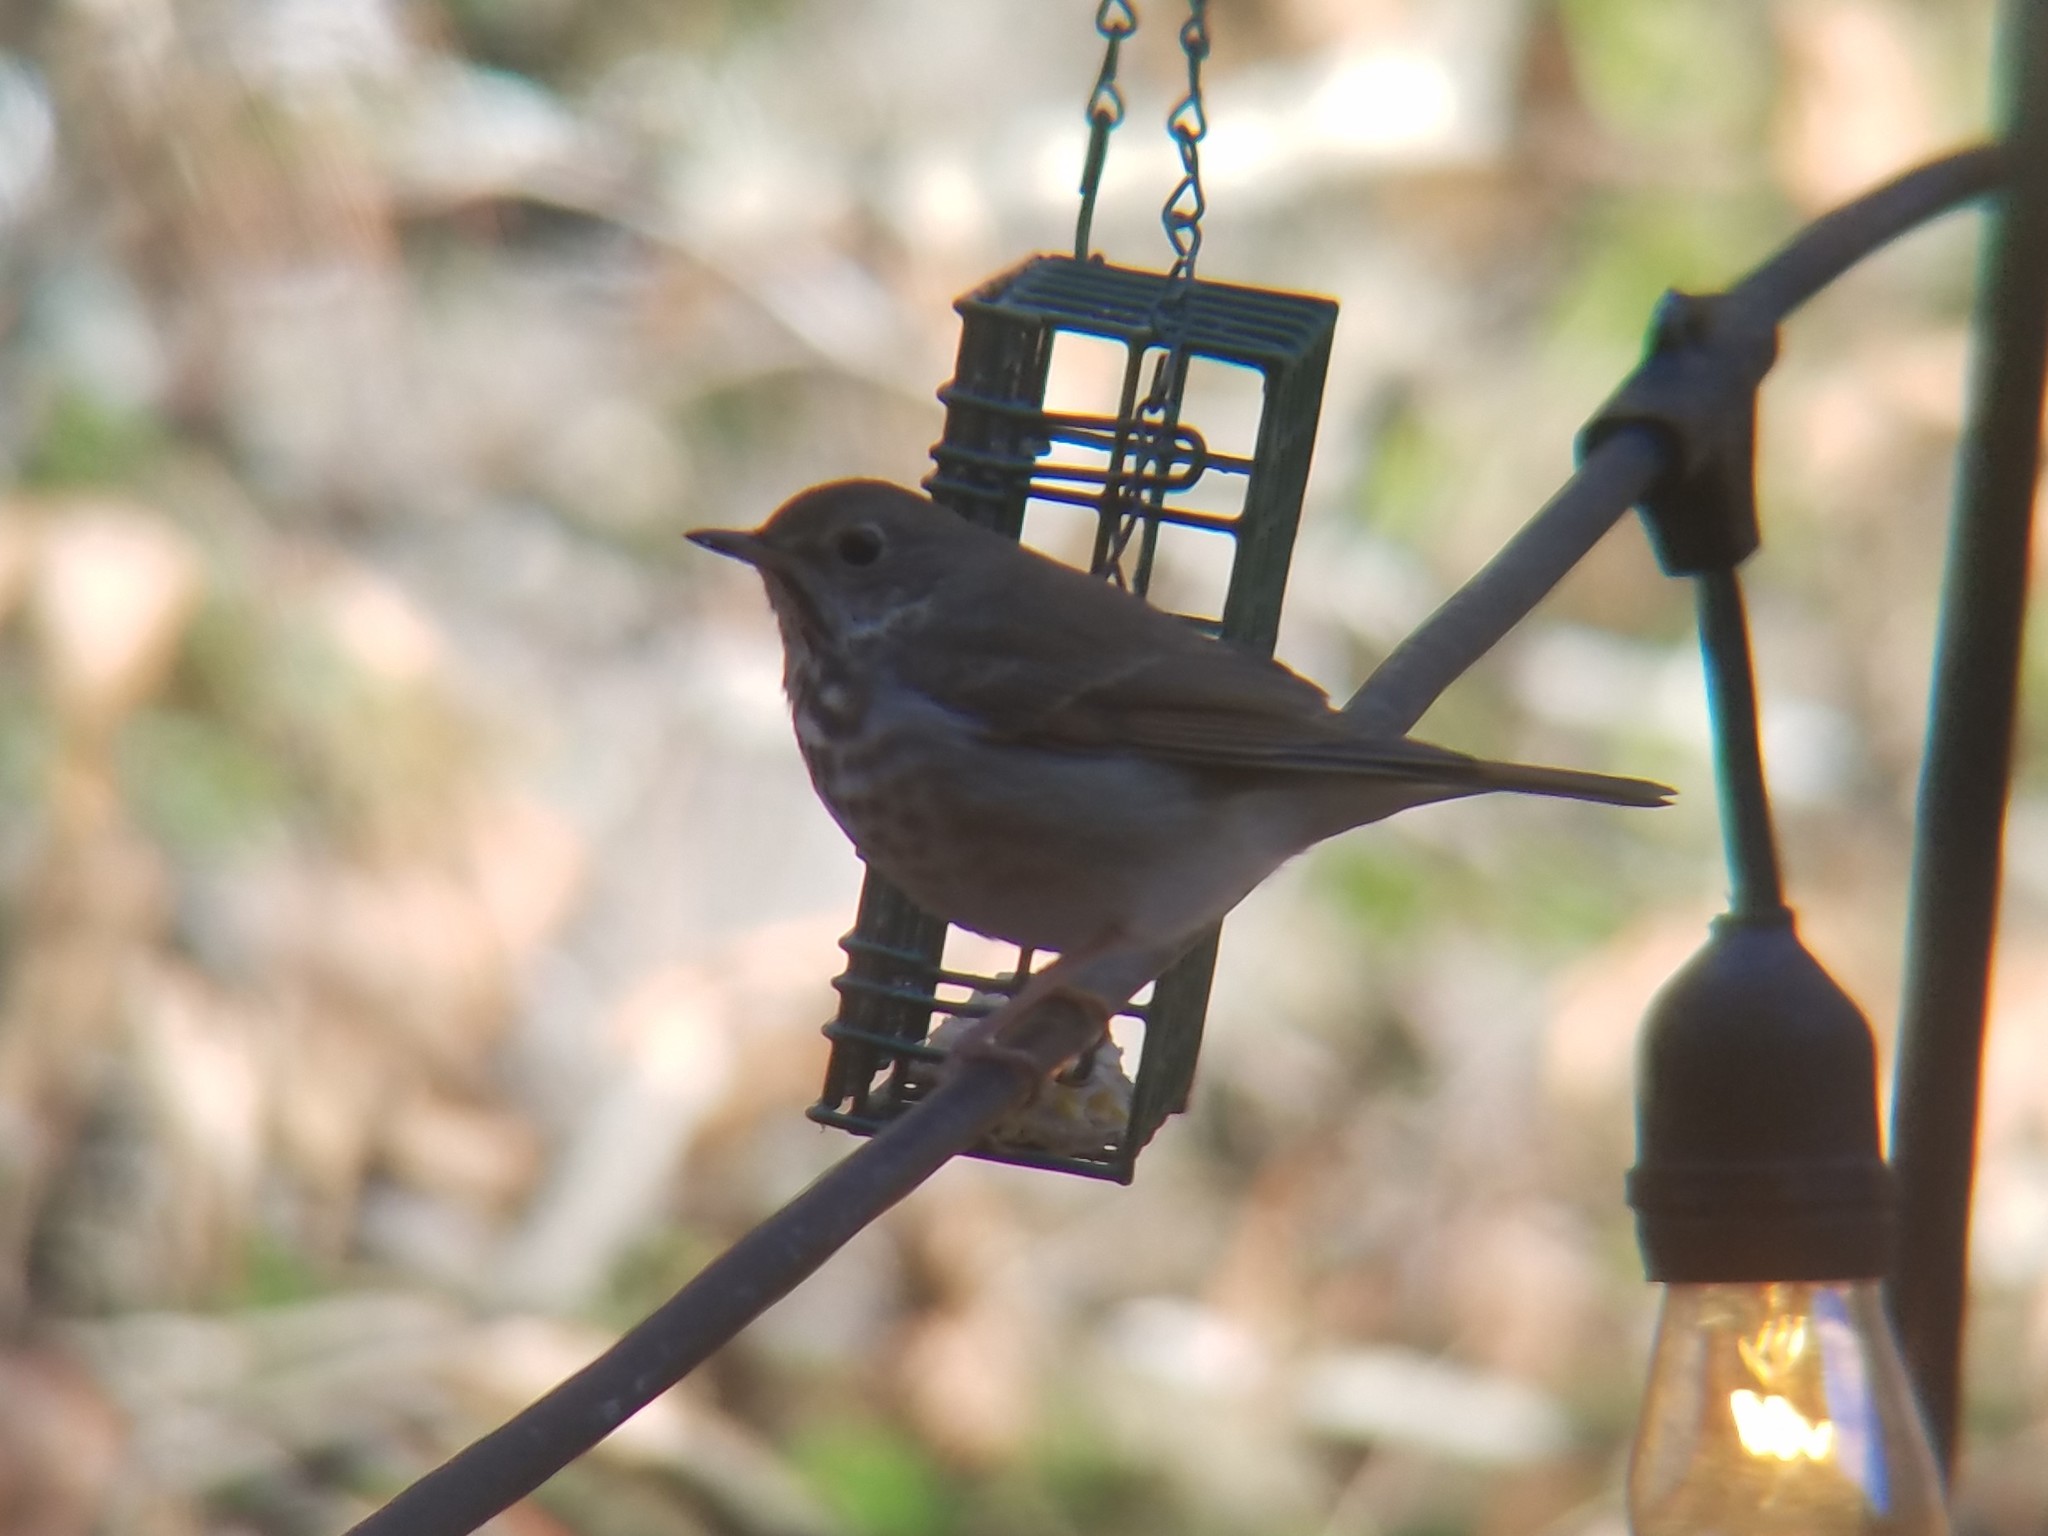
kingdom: Animalia
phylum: Chordata
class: Aves
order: Passeriformes
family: Turdidae
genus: Catharus
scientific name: Catharus guttatus
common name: Hermit thrush
